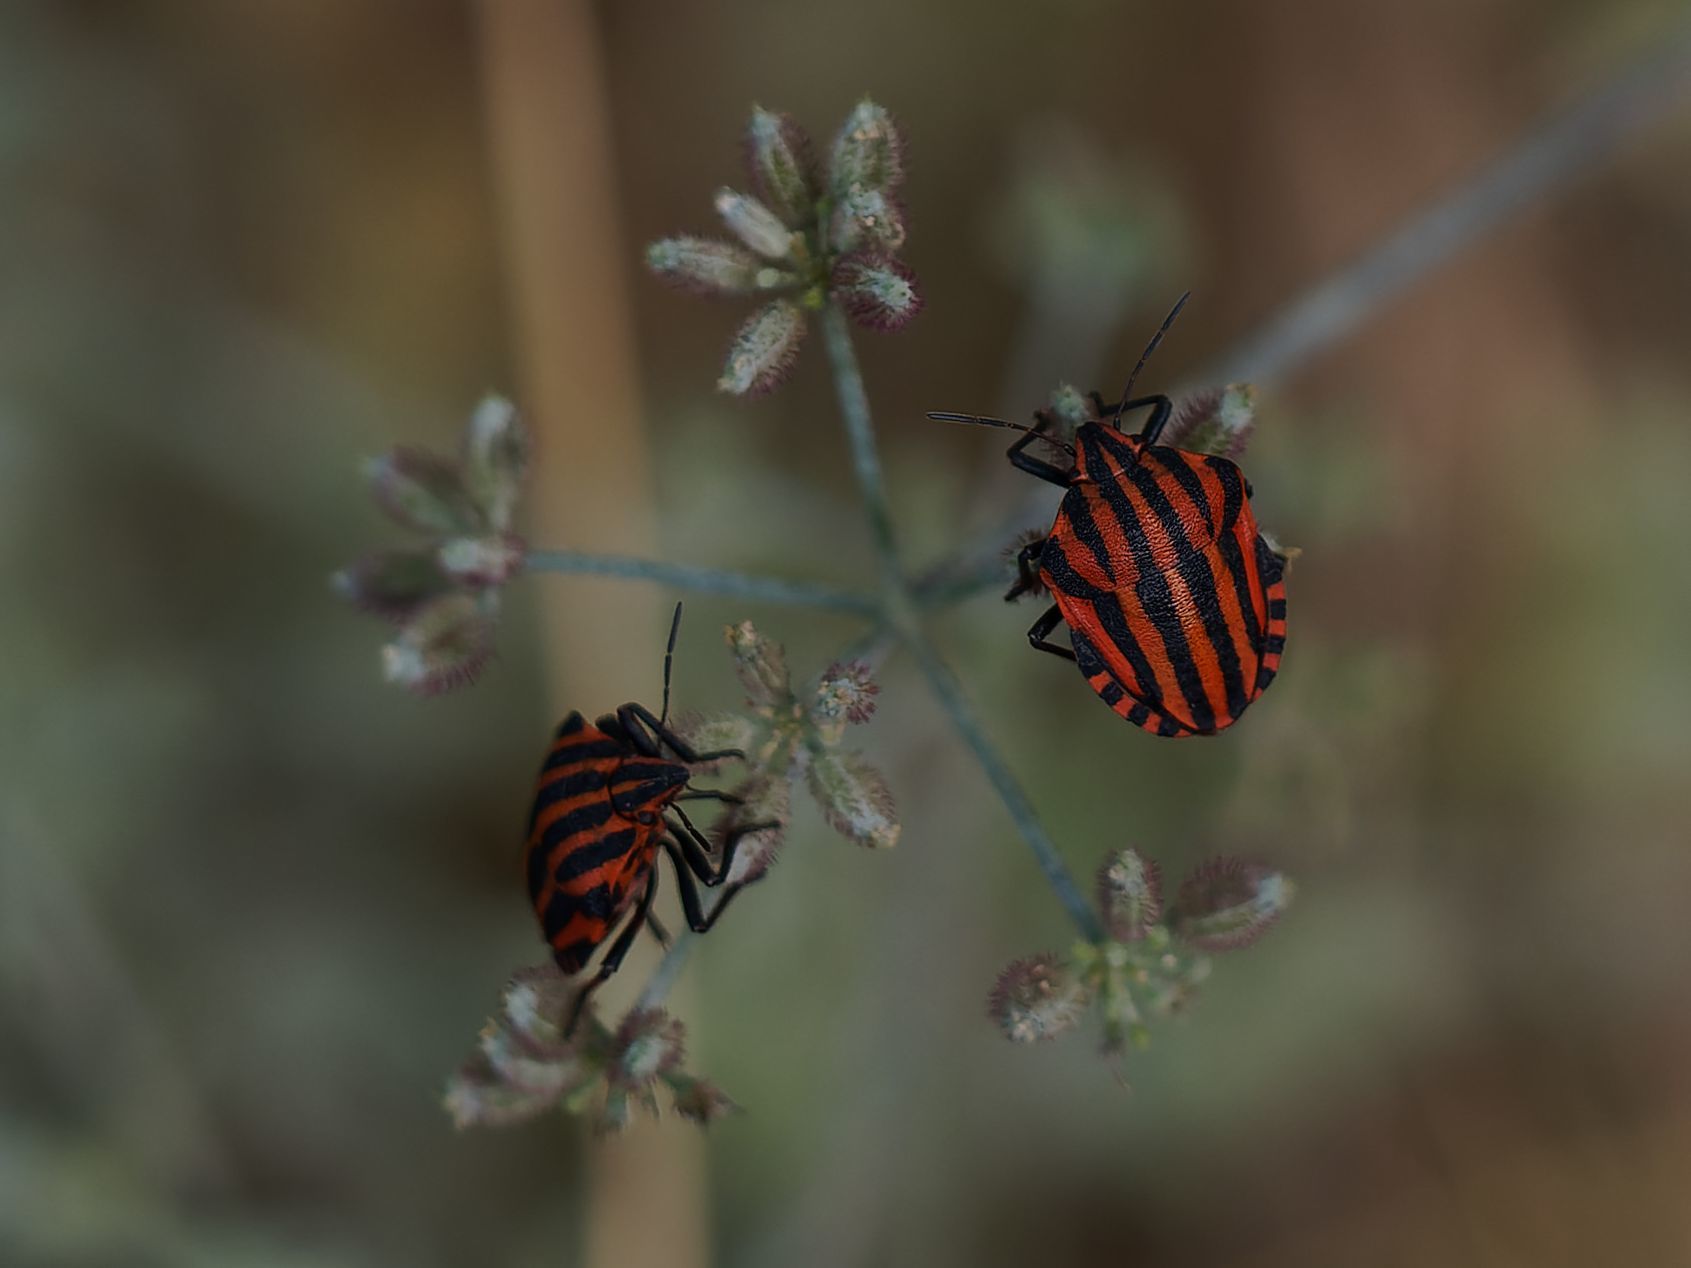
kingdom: Animalia
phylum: Arthropoda
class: Insecta
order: Hemiptera
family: Pentatomidae
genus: Graphosoma
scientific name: Graphosoma italicum
